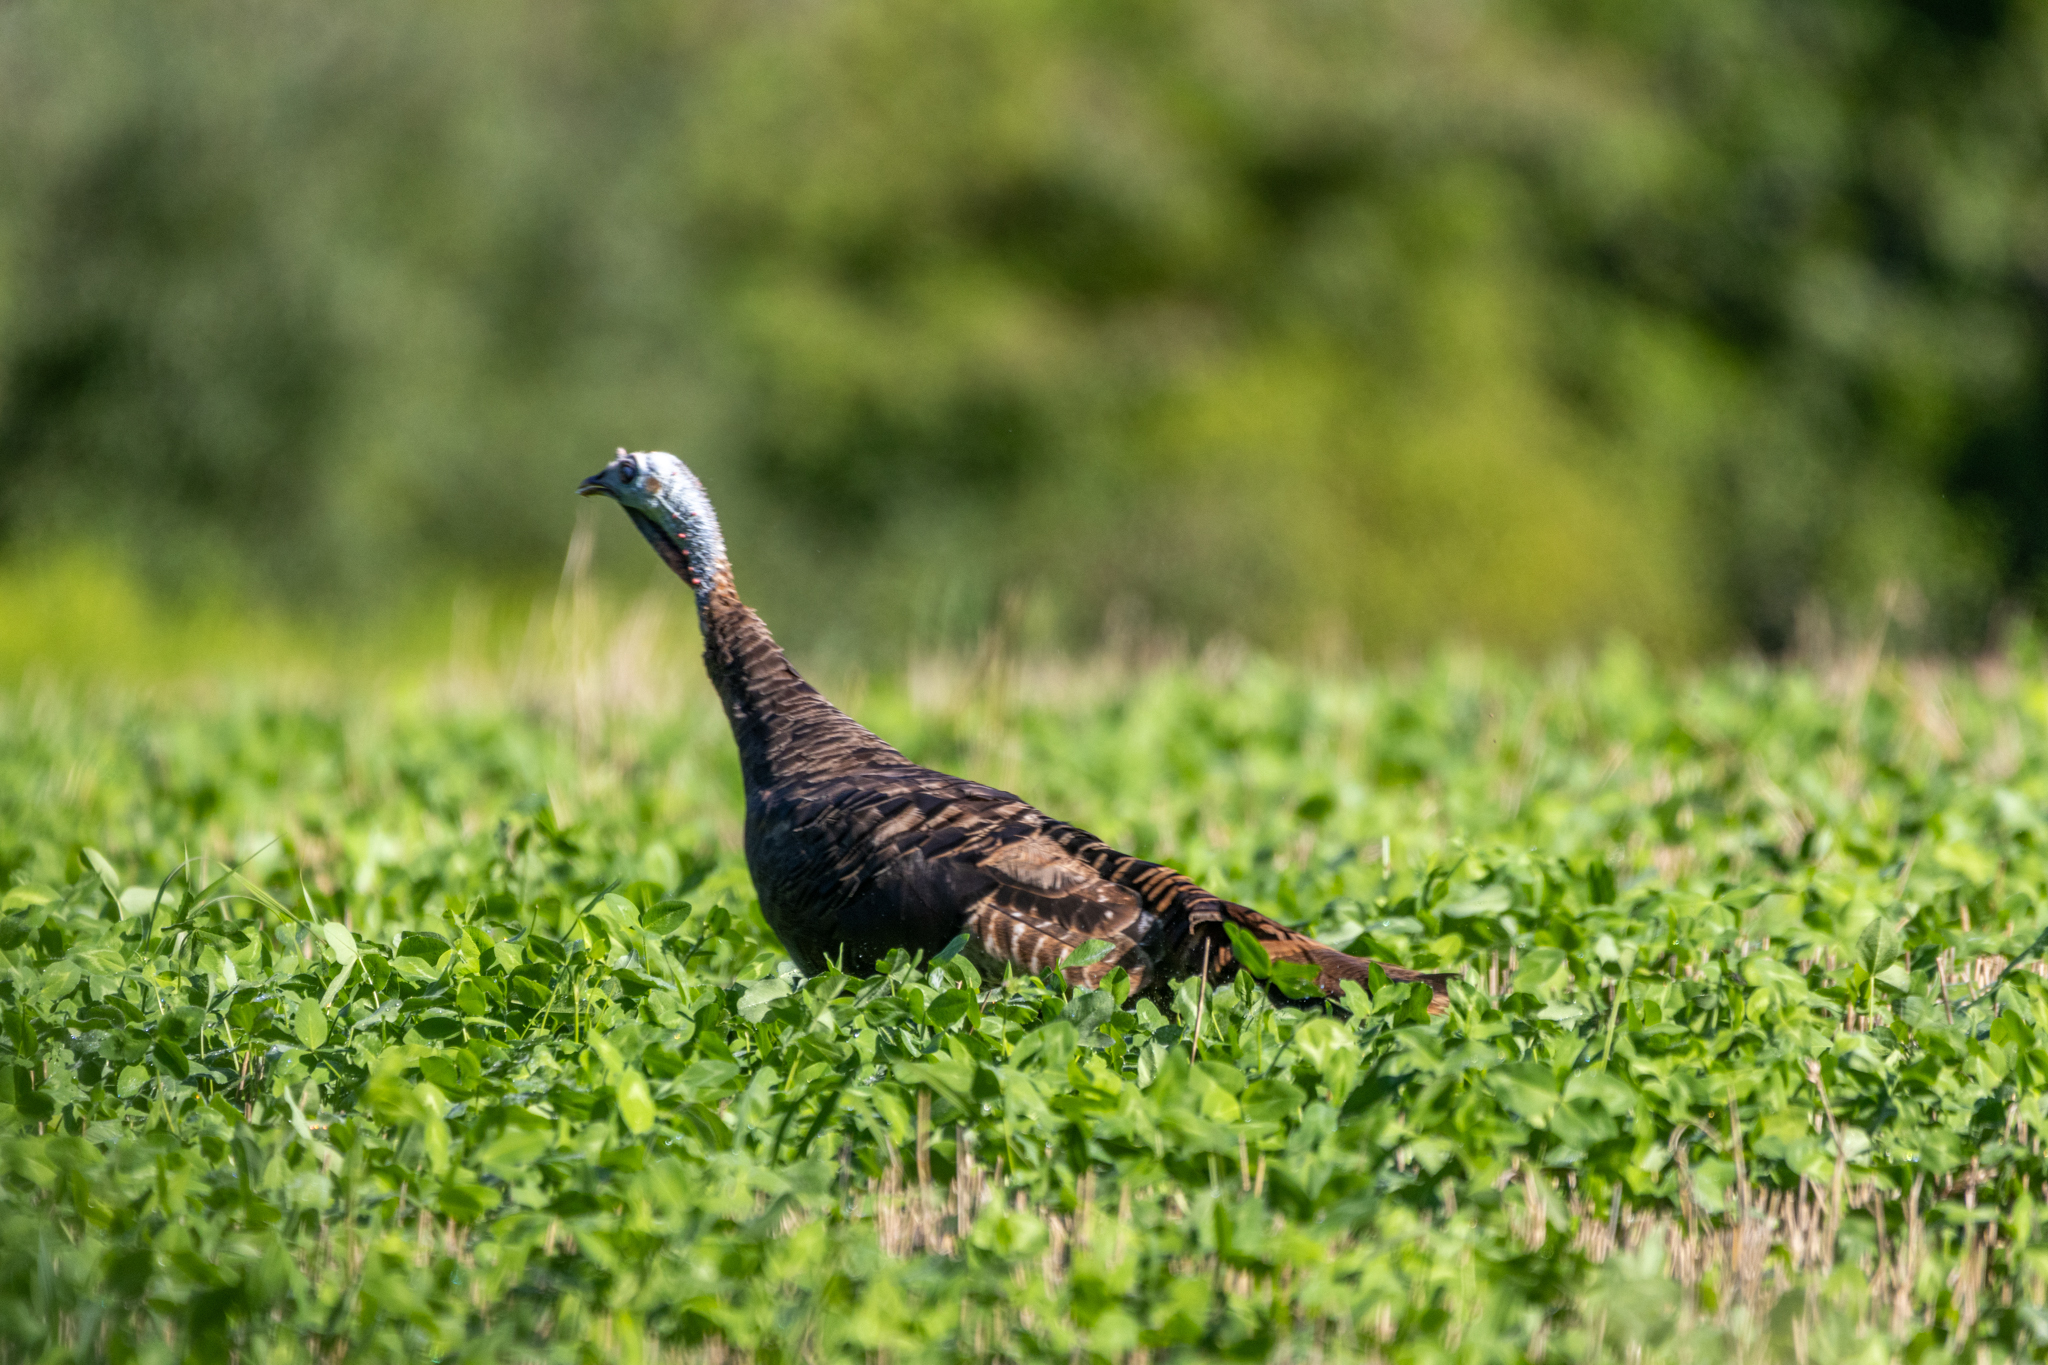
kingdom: Animalia
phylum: Chordata
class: Aves
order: Galliformes
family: Phasianidae
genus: Meleagris
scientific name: Meleagris gallopavo
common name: Wild turkey
